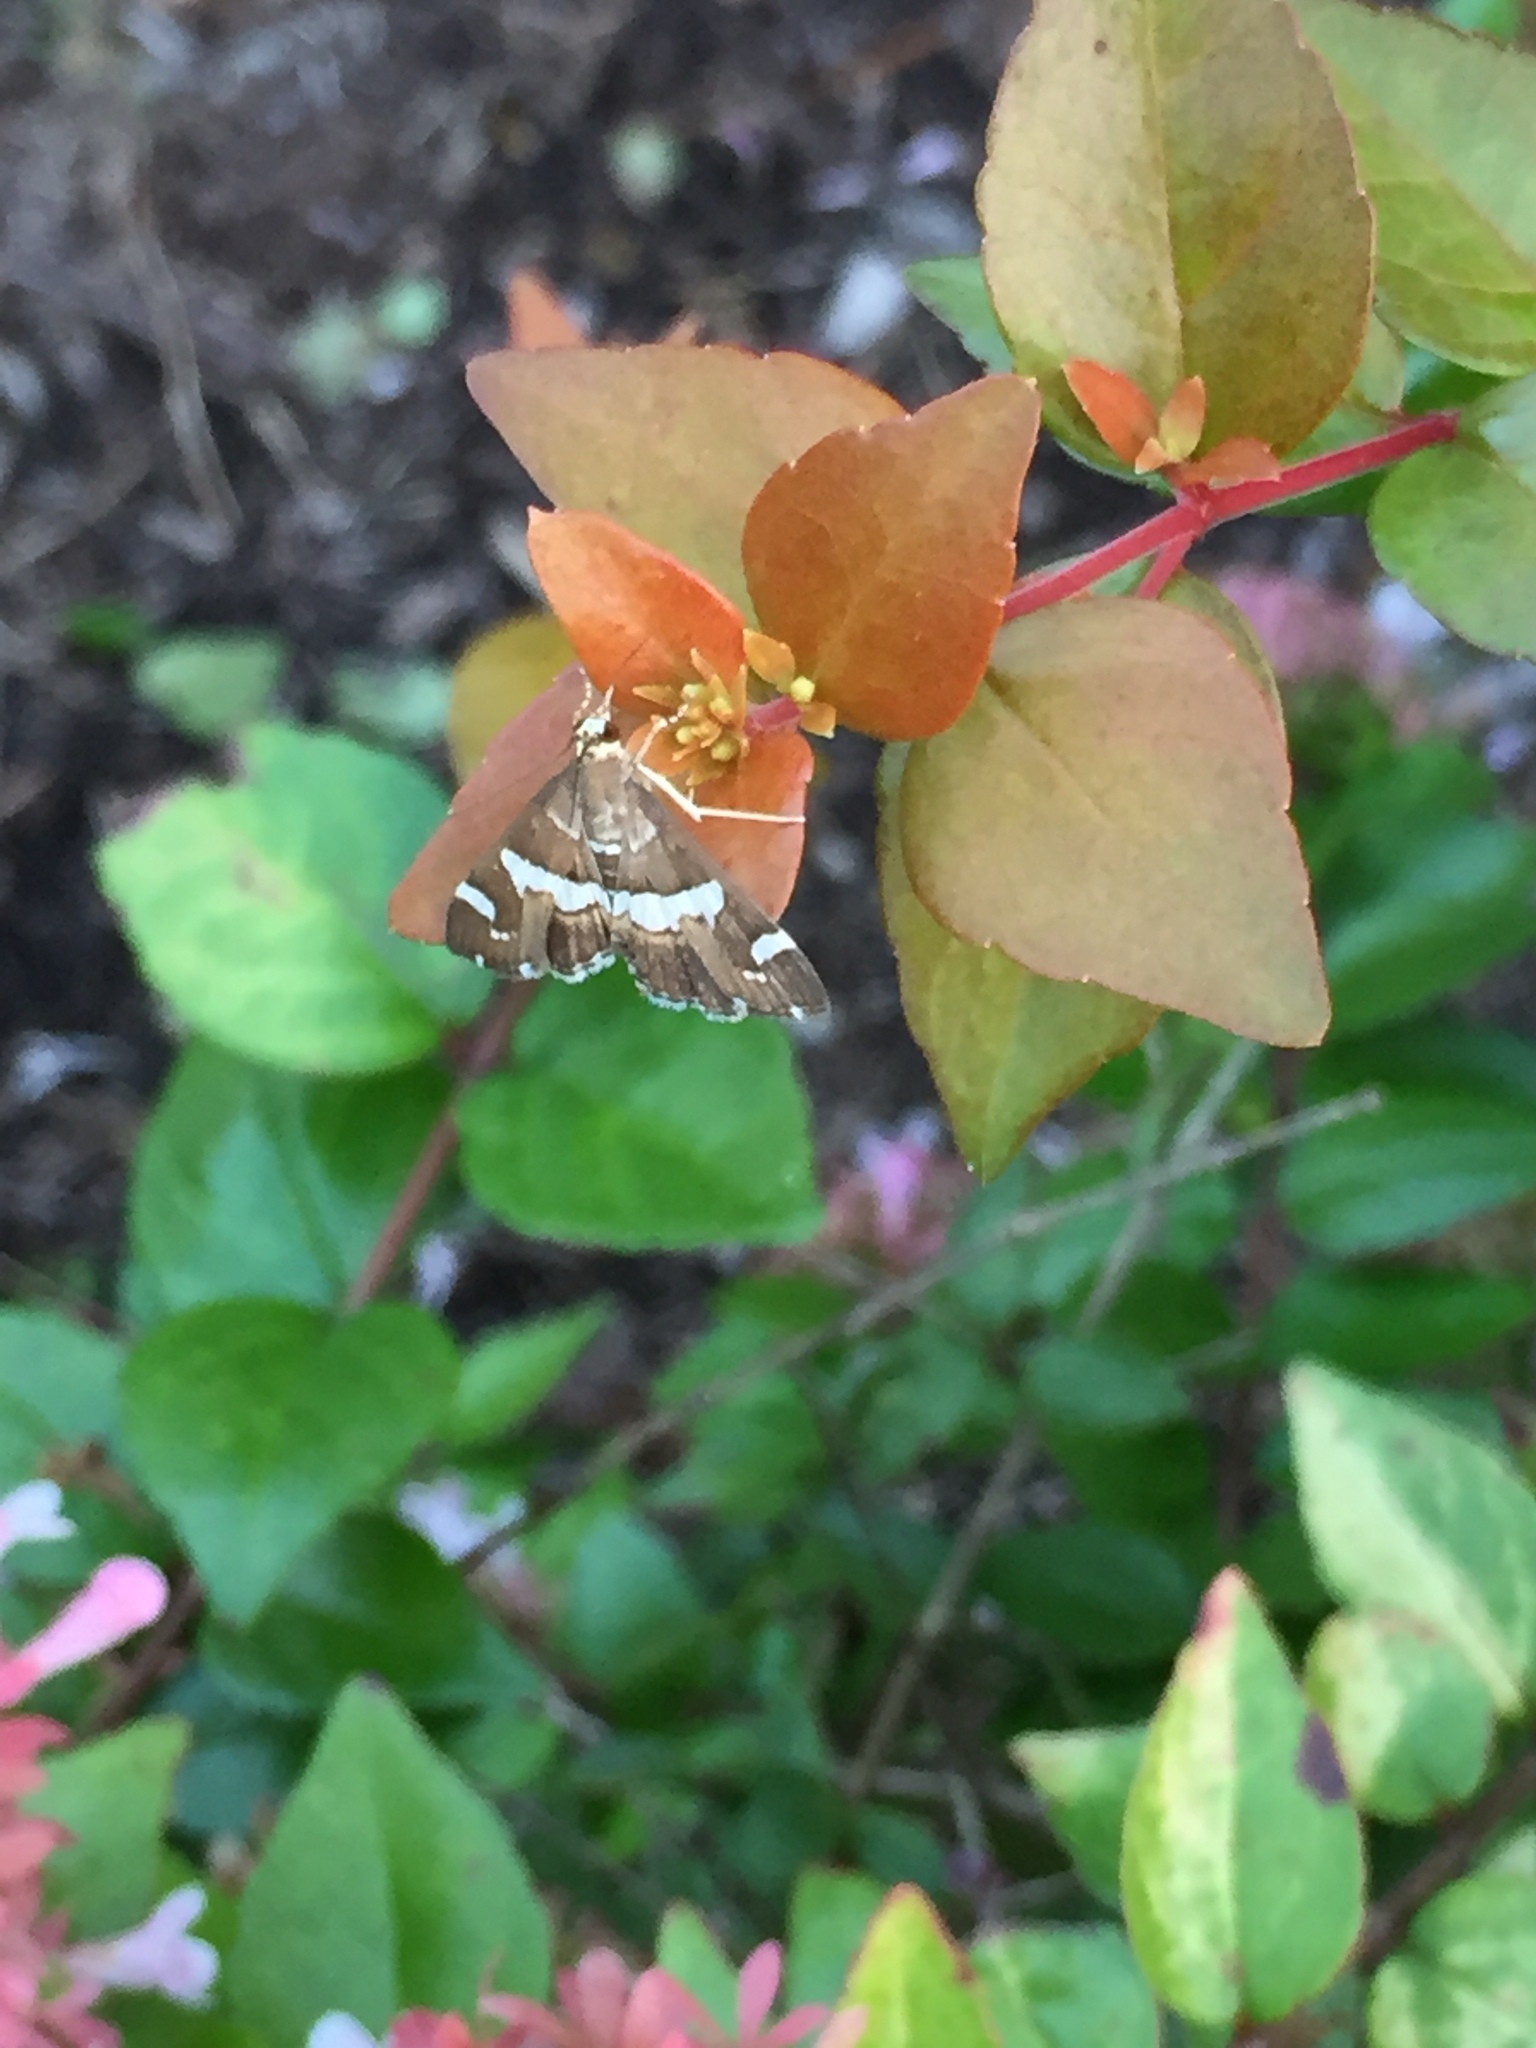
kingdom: Animalia
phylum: Arthropoda
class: Insecta
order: Lepidoptera
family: Crambidae
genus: Spoladea
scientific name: Spoladea recurvalis
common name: Beet webworm moth
